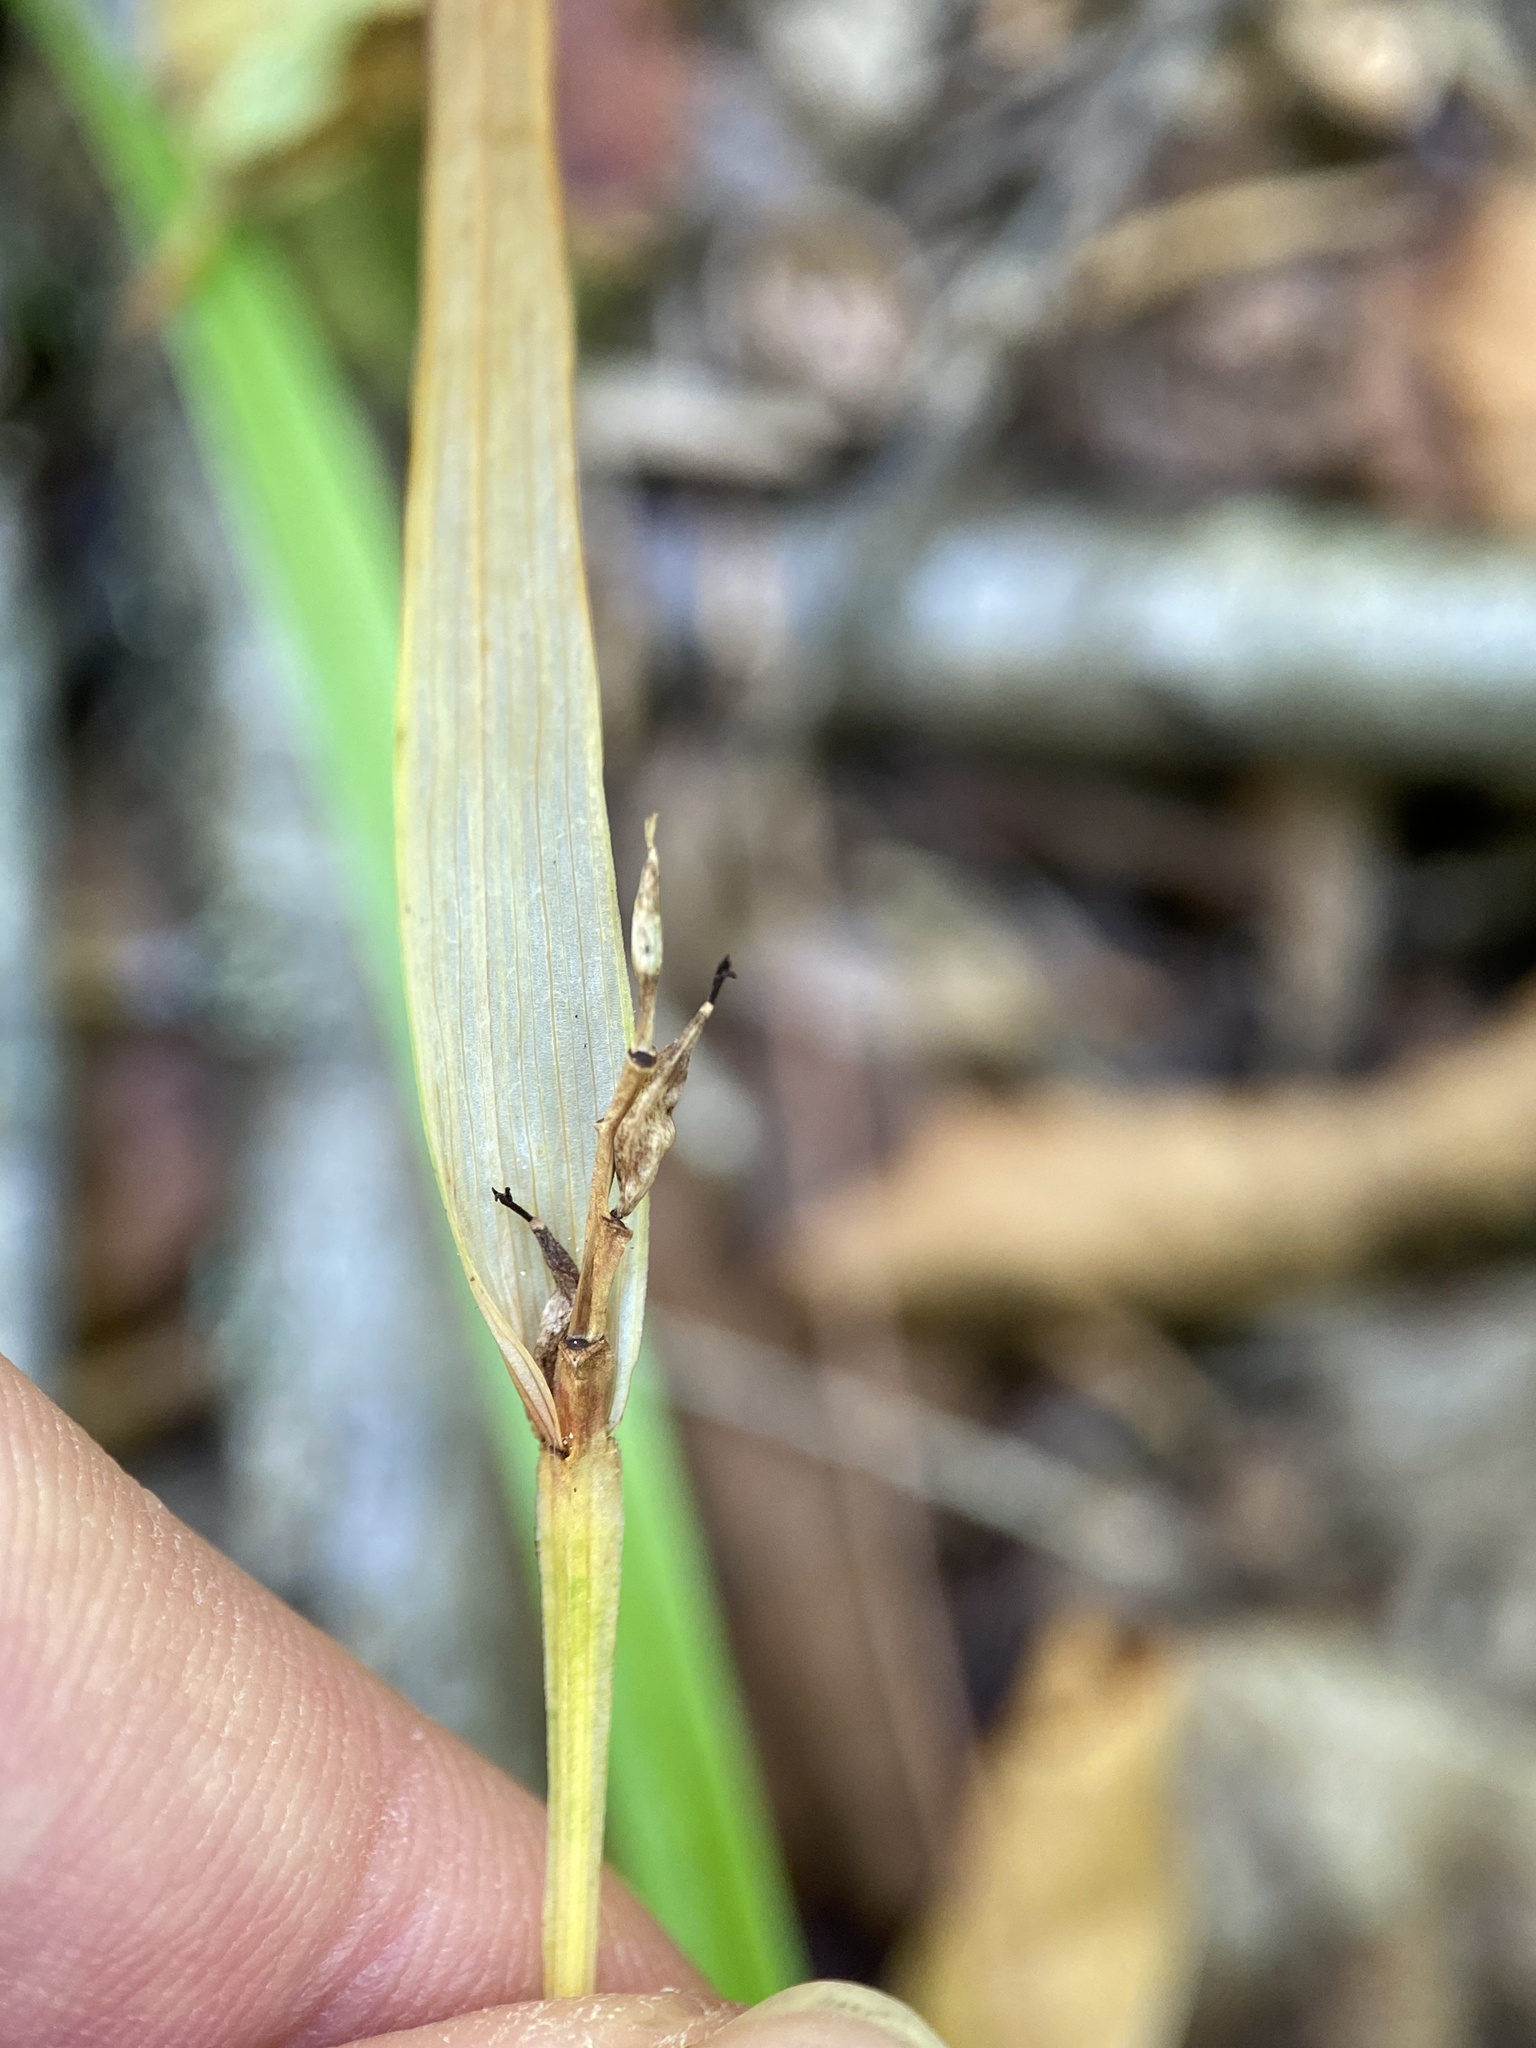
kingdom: Plantae
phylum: Tracheophyta
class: Liliopsida
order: Poales
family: Cyperaceae
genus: Carex
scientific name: Carex backii
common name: Back's sedge
